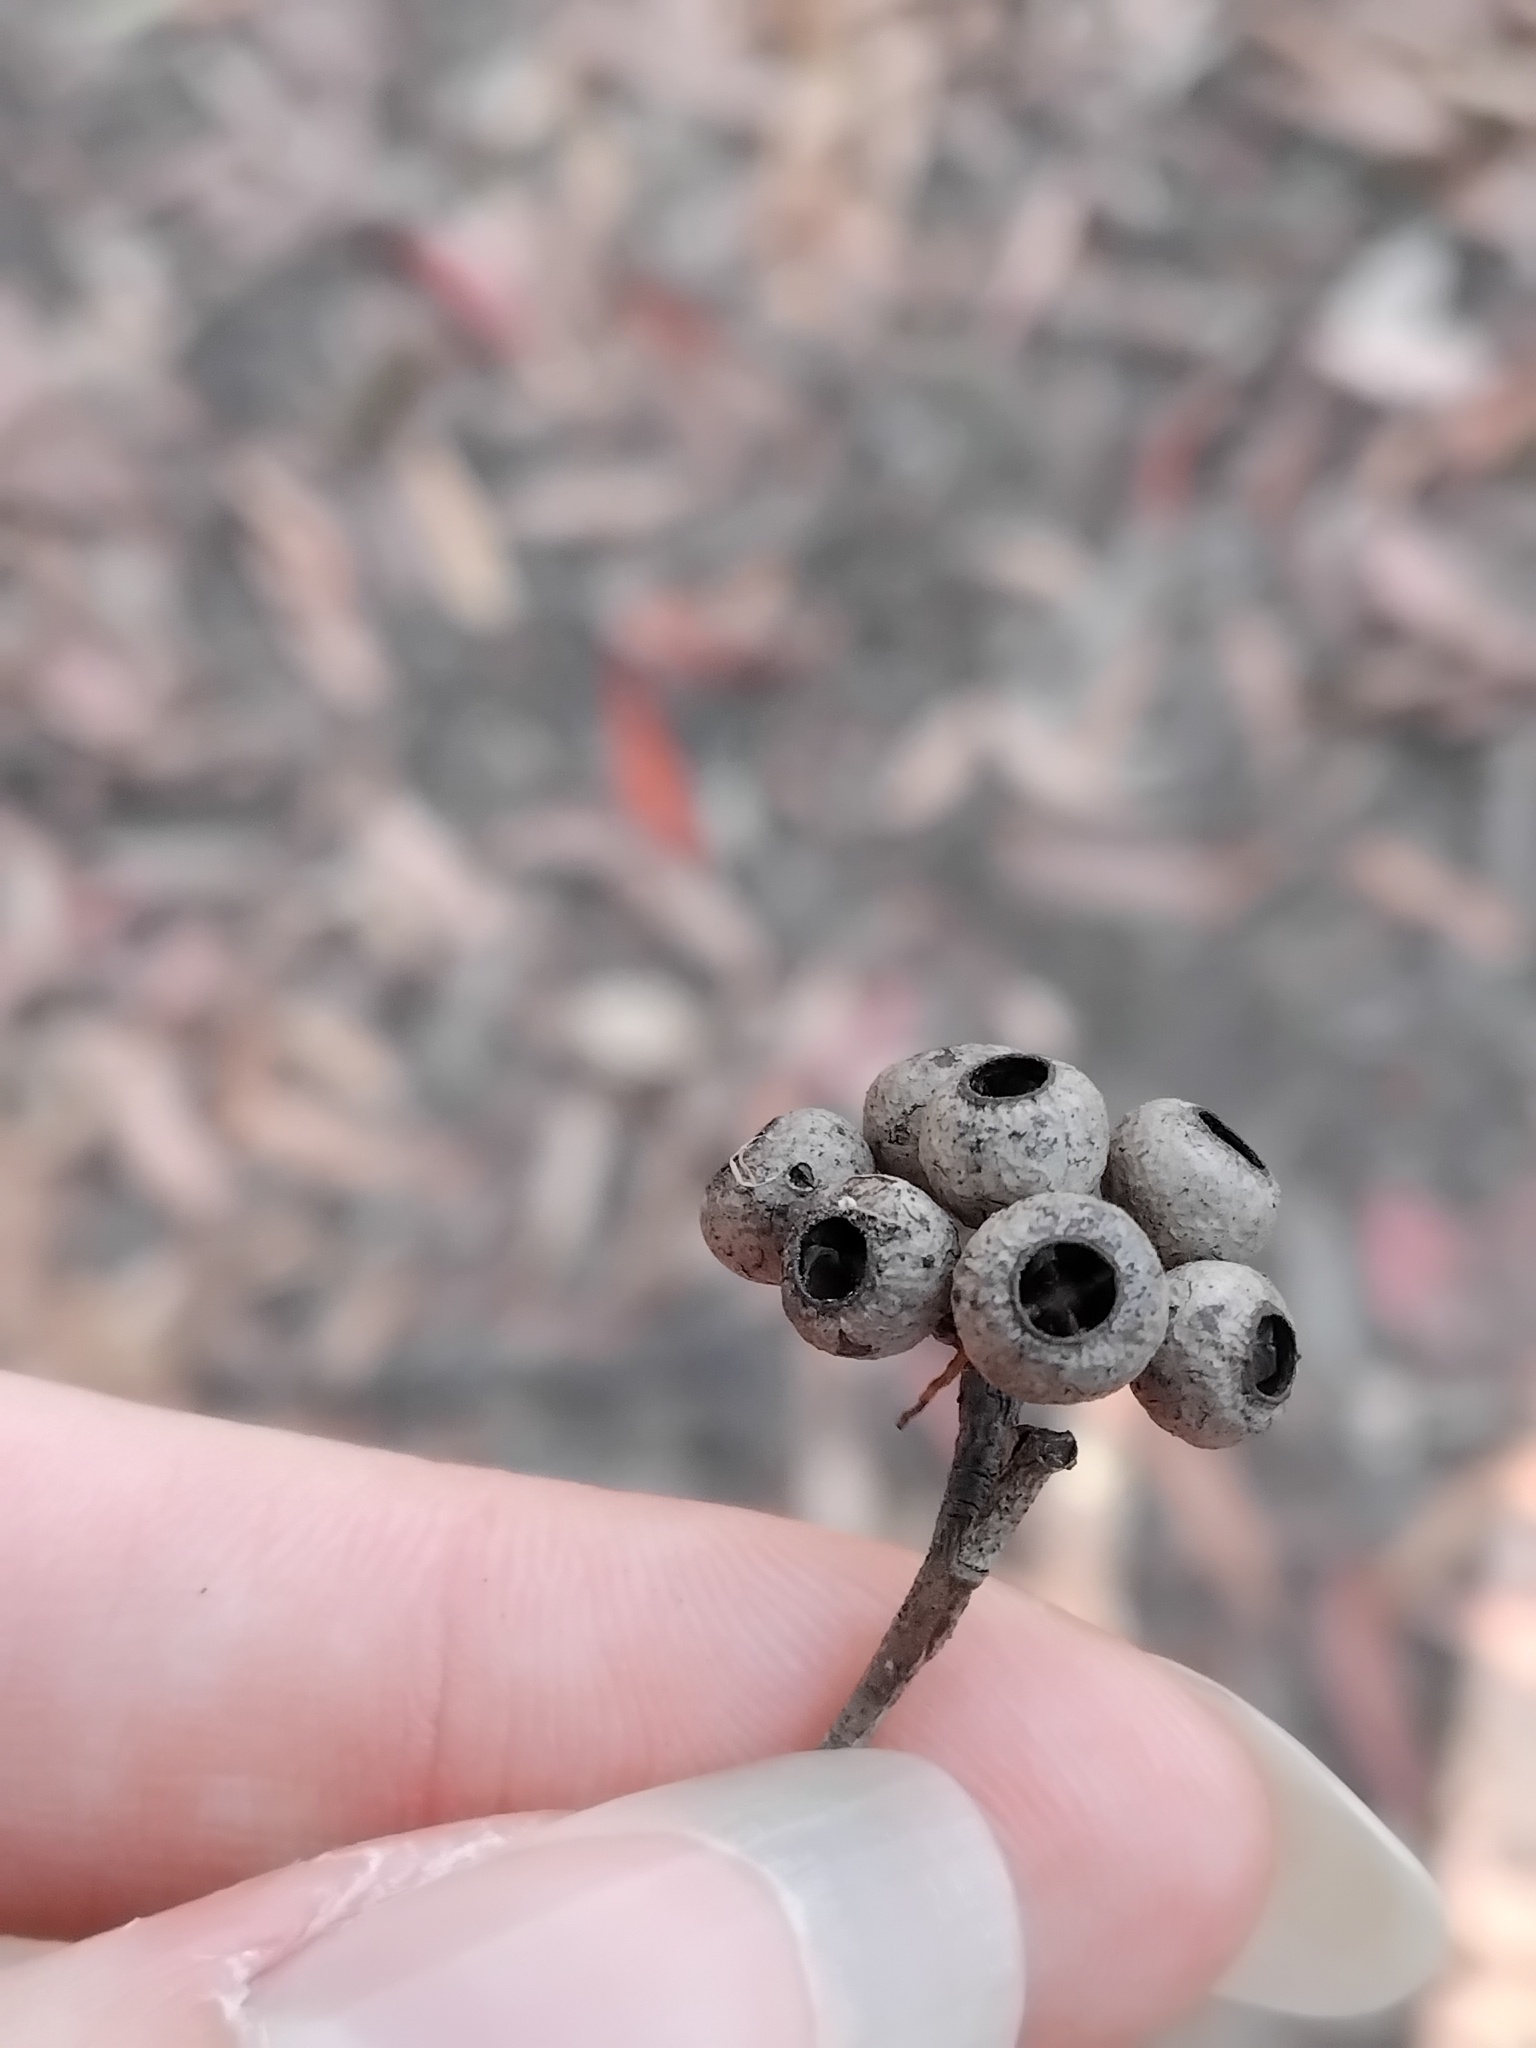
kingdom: Plantae
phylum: Tracheophyta
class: Magnoliopsida
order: Myrtales
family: Myrtaceae
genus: Eucalyptus
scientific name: Eucalyptus piperita
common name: Sydney peppermint
